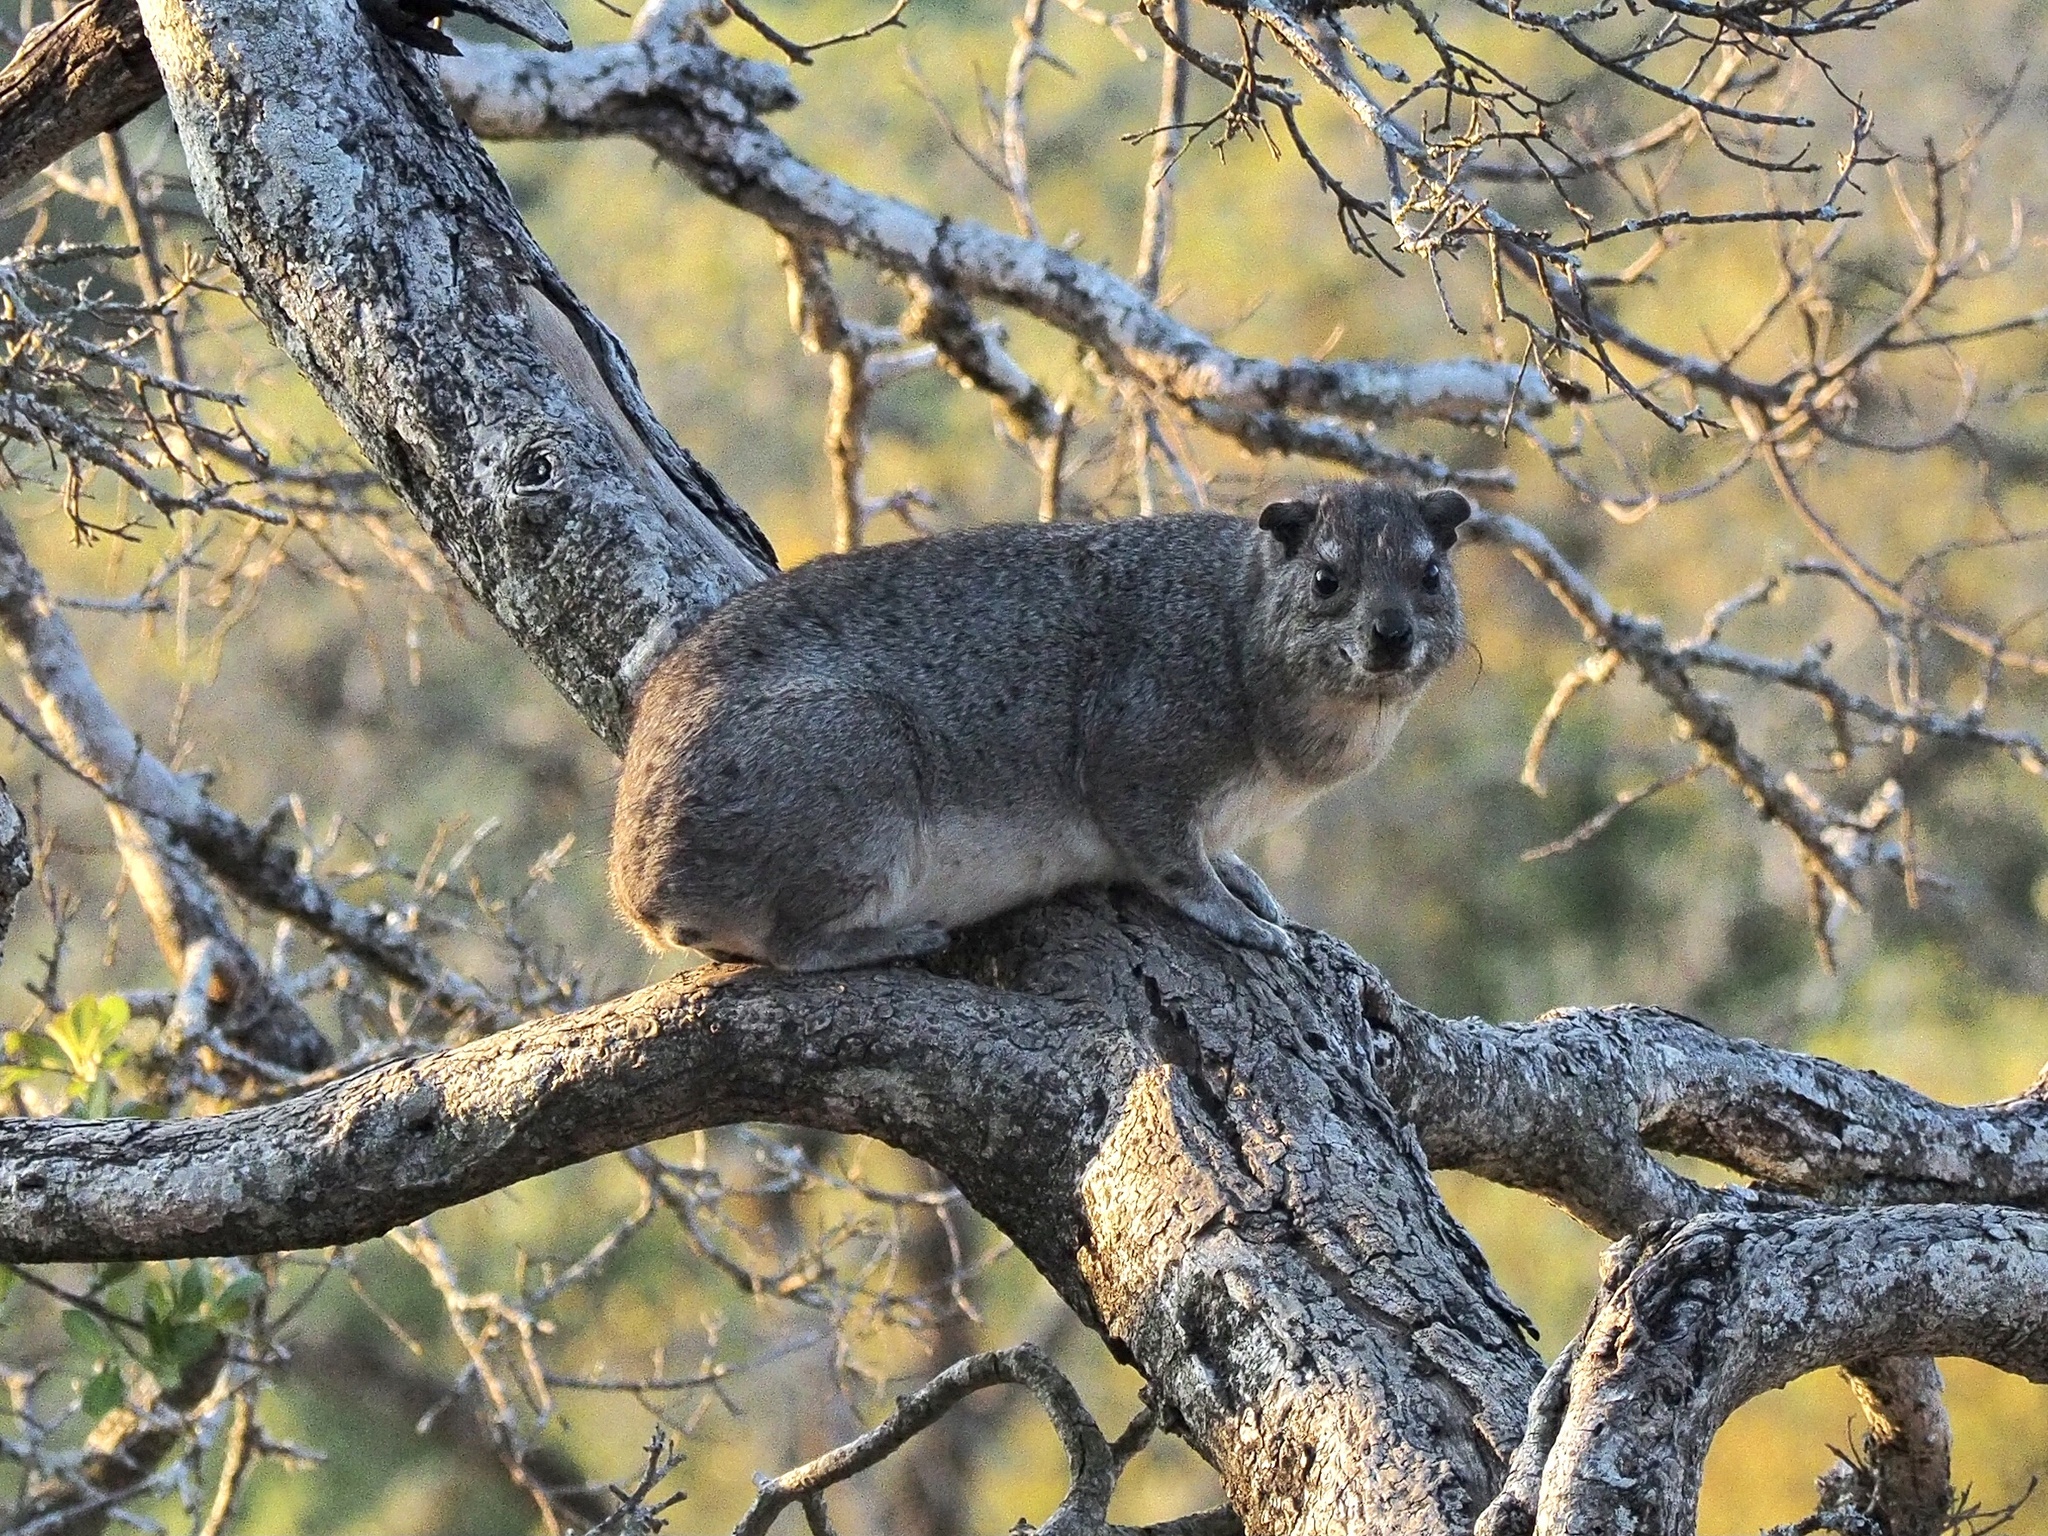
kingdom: Animalia
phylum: Chordata
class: Mammalia
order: Hyracoidea
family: Procaviidae
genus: Heterohyrax
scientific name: Heterohyrax brucei
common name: Bush hyrax
